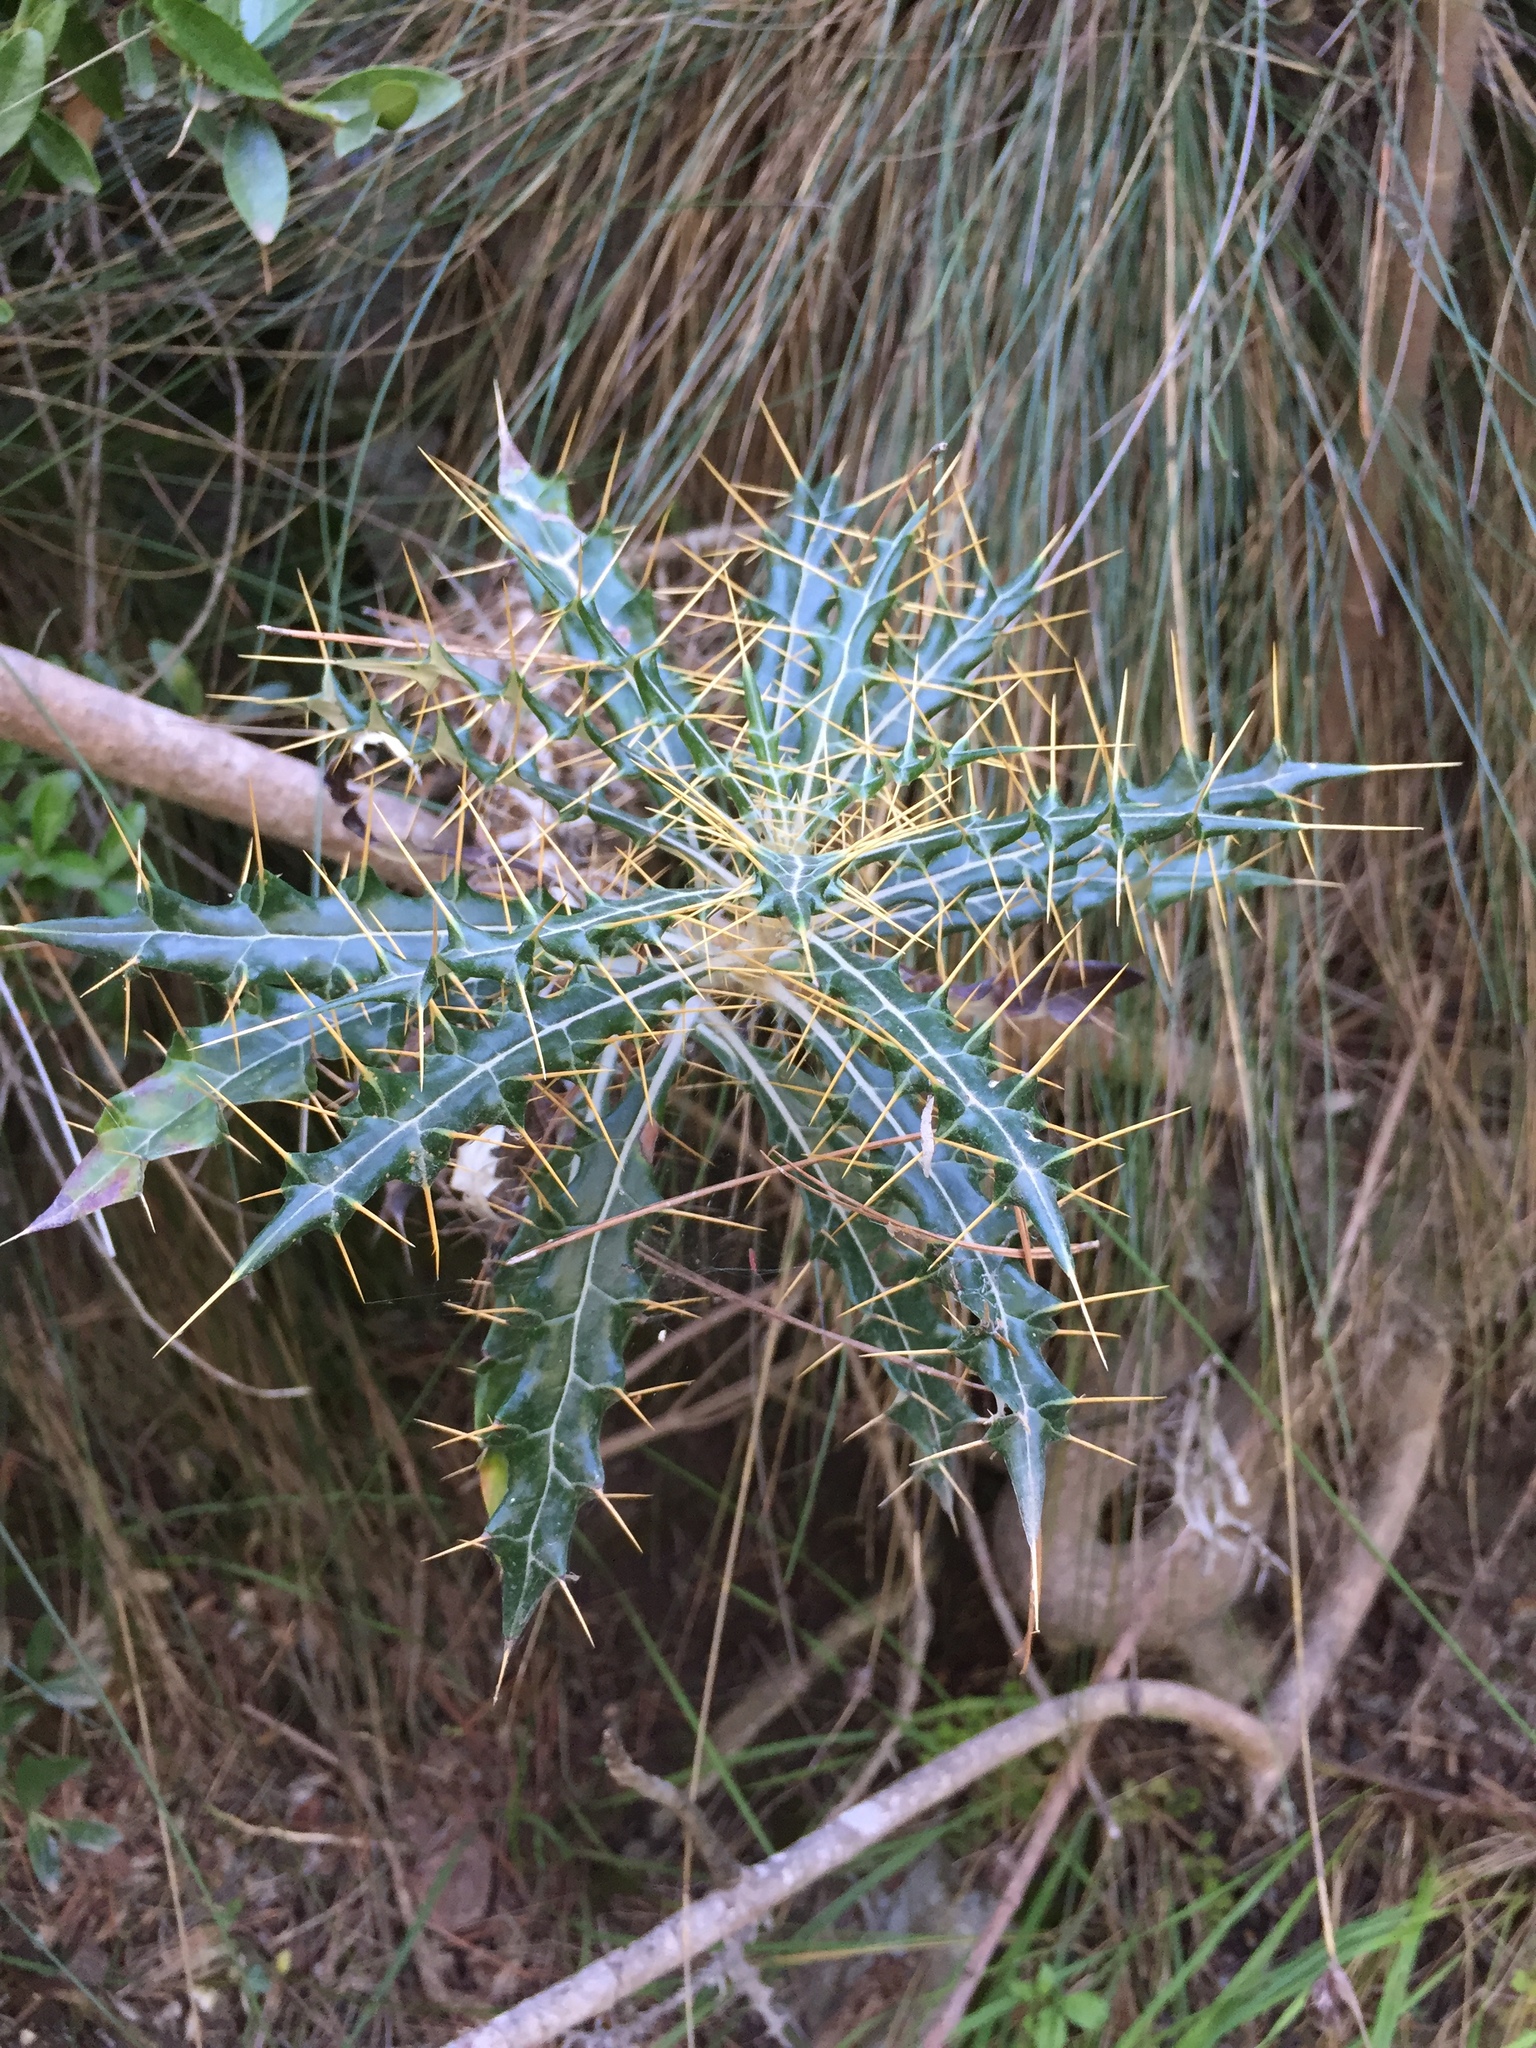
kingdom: Plantae
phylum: Tracheophyta
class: Magnoliopsida
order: Asterales
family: Asteraceae
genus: Ptilostemon
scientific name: Ptilostemon hispanicus
